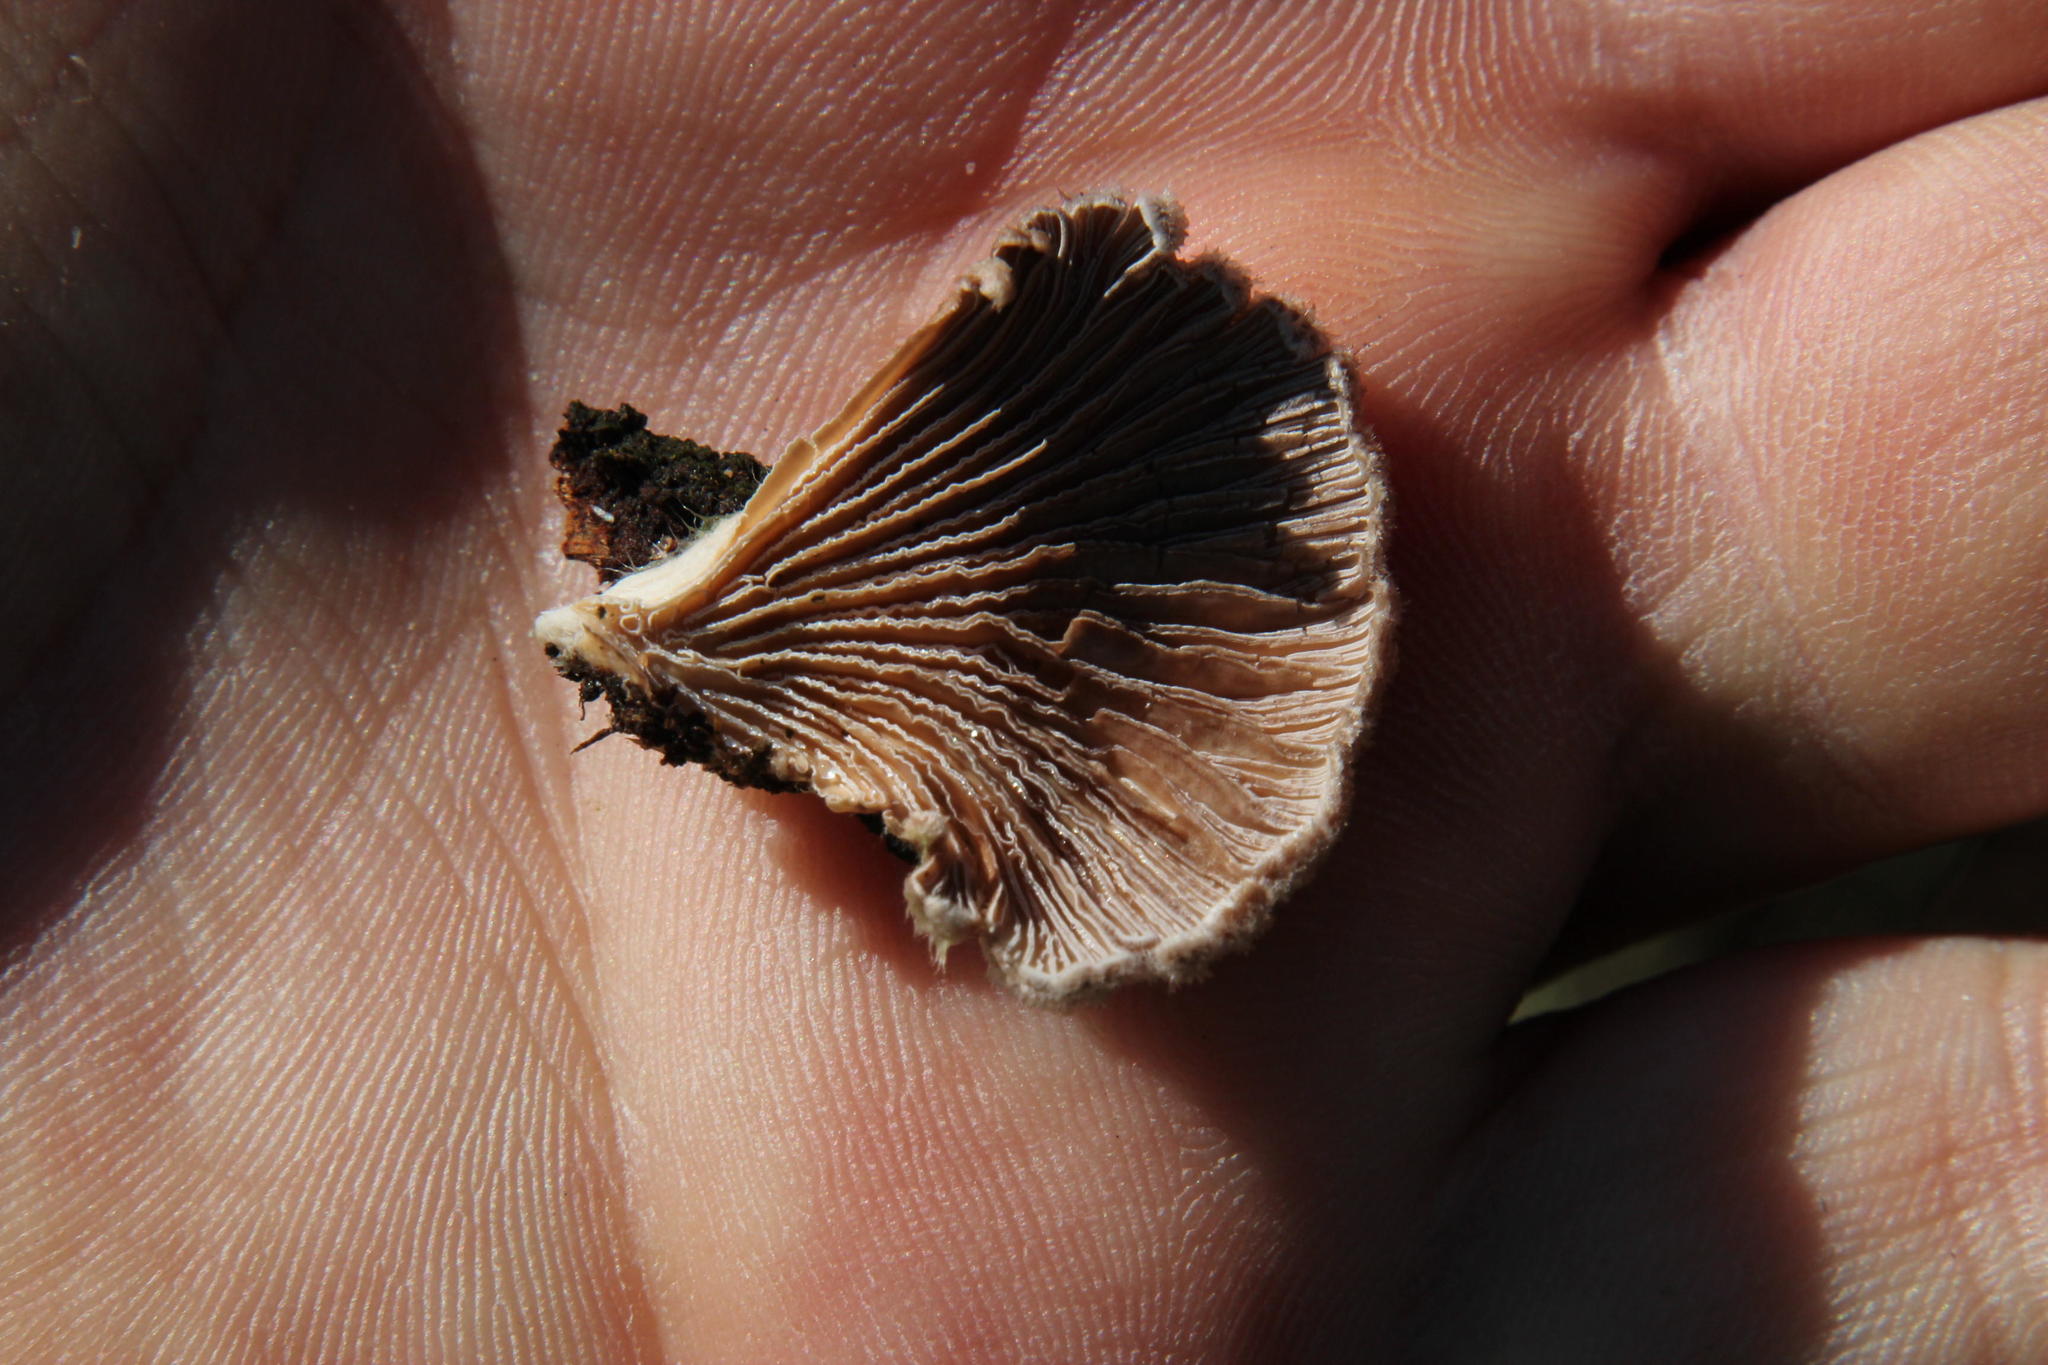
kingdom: Fungi
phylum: Basidiomycota
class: Agaricomycetes
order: Agaricales
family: Schizophyllaceae
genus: Schizophyllum
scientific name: Schizophyllum commune
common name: Common porecrust
